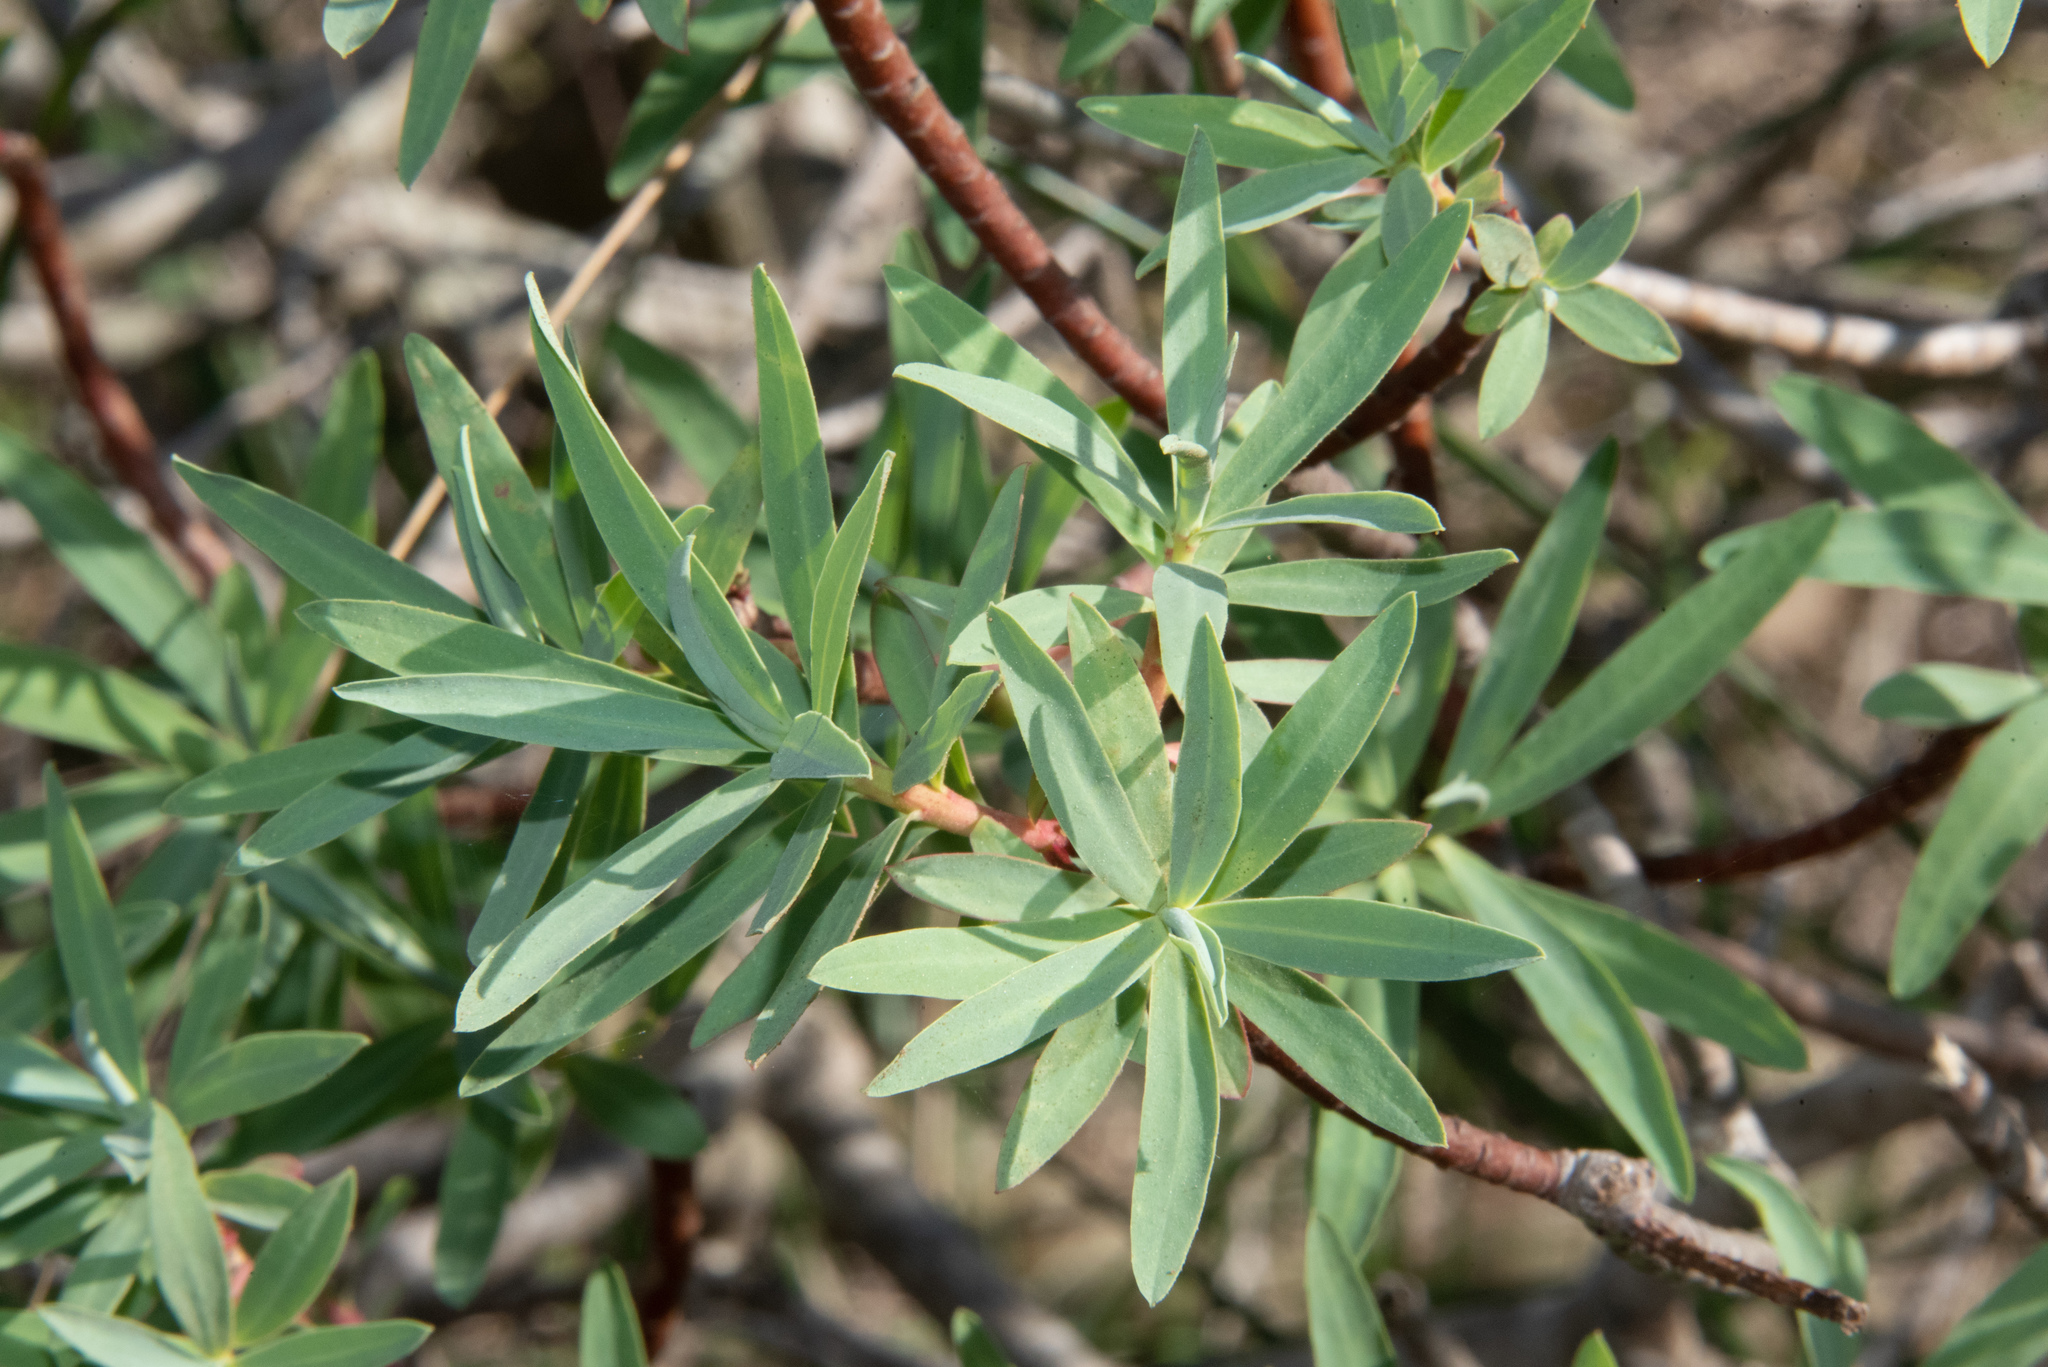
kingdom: Plantae
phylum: Tracheophyta
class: Magnoliopsida
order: Malpighiales
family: Euphorbiaceae
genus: Euphorbia
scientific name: Euphorbia dendroides
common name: Tree spurge
